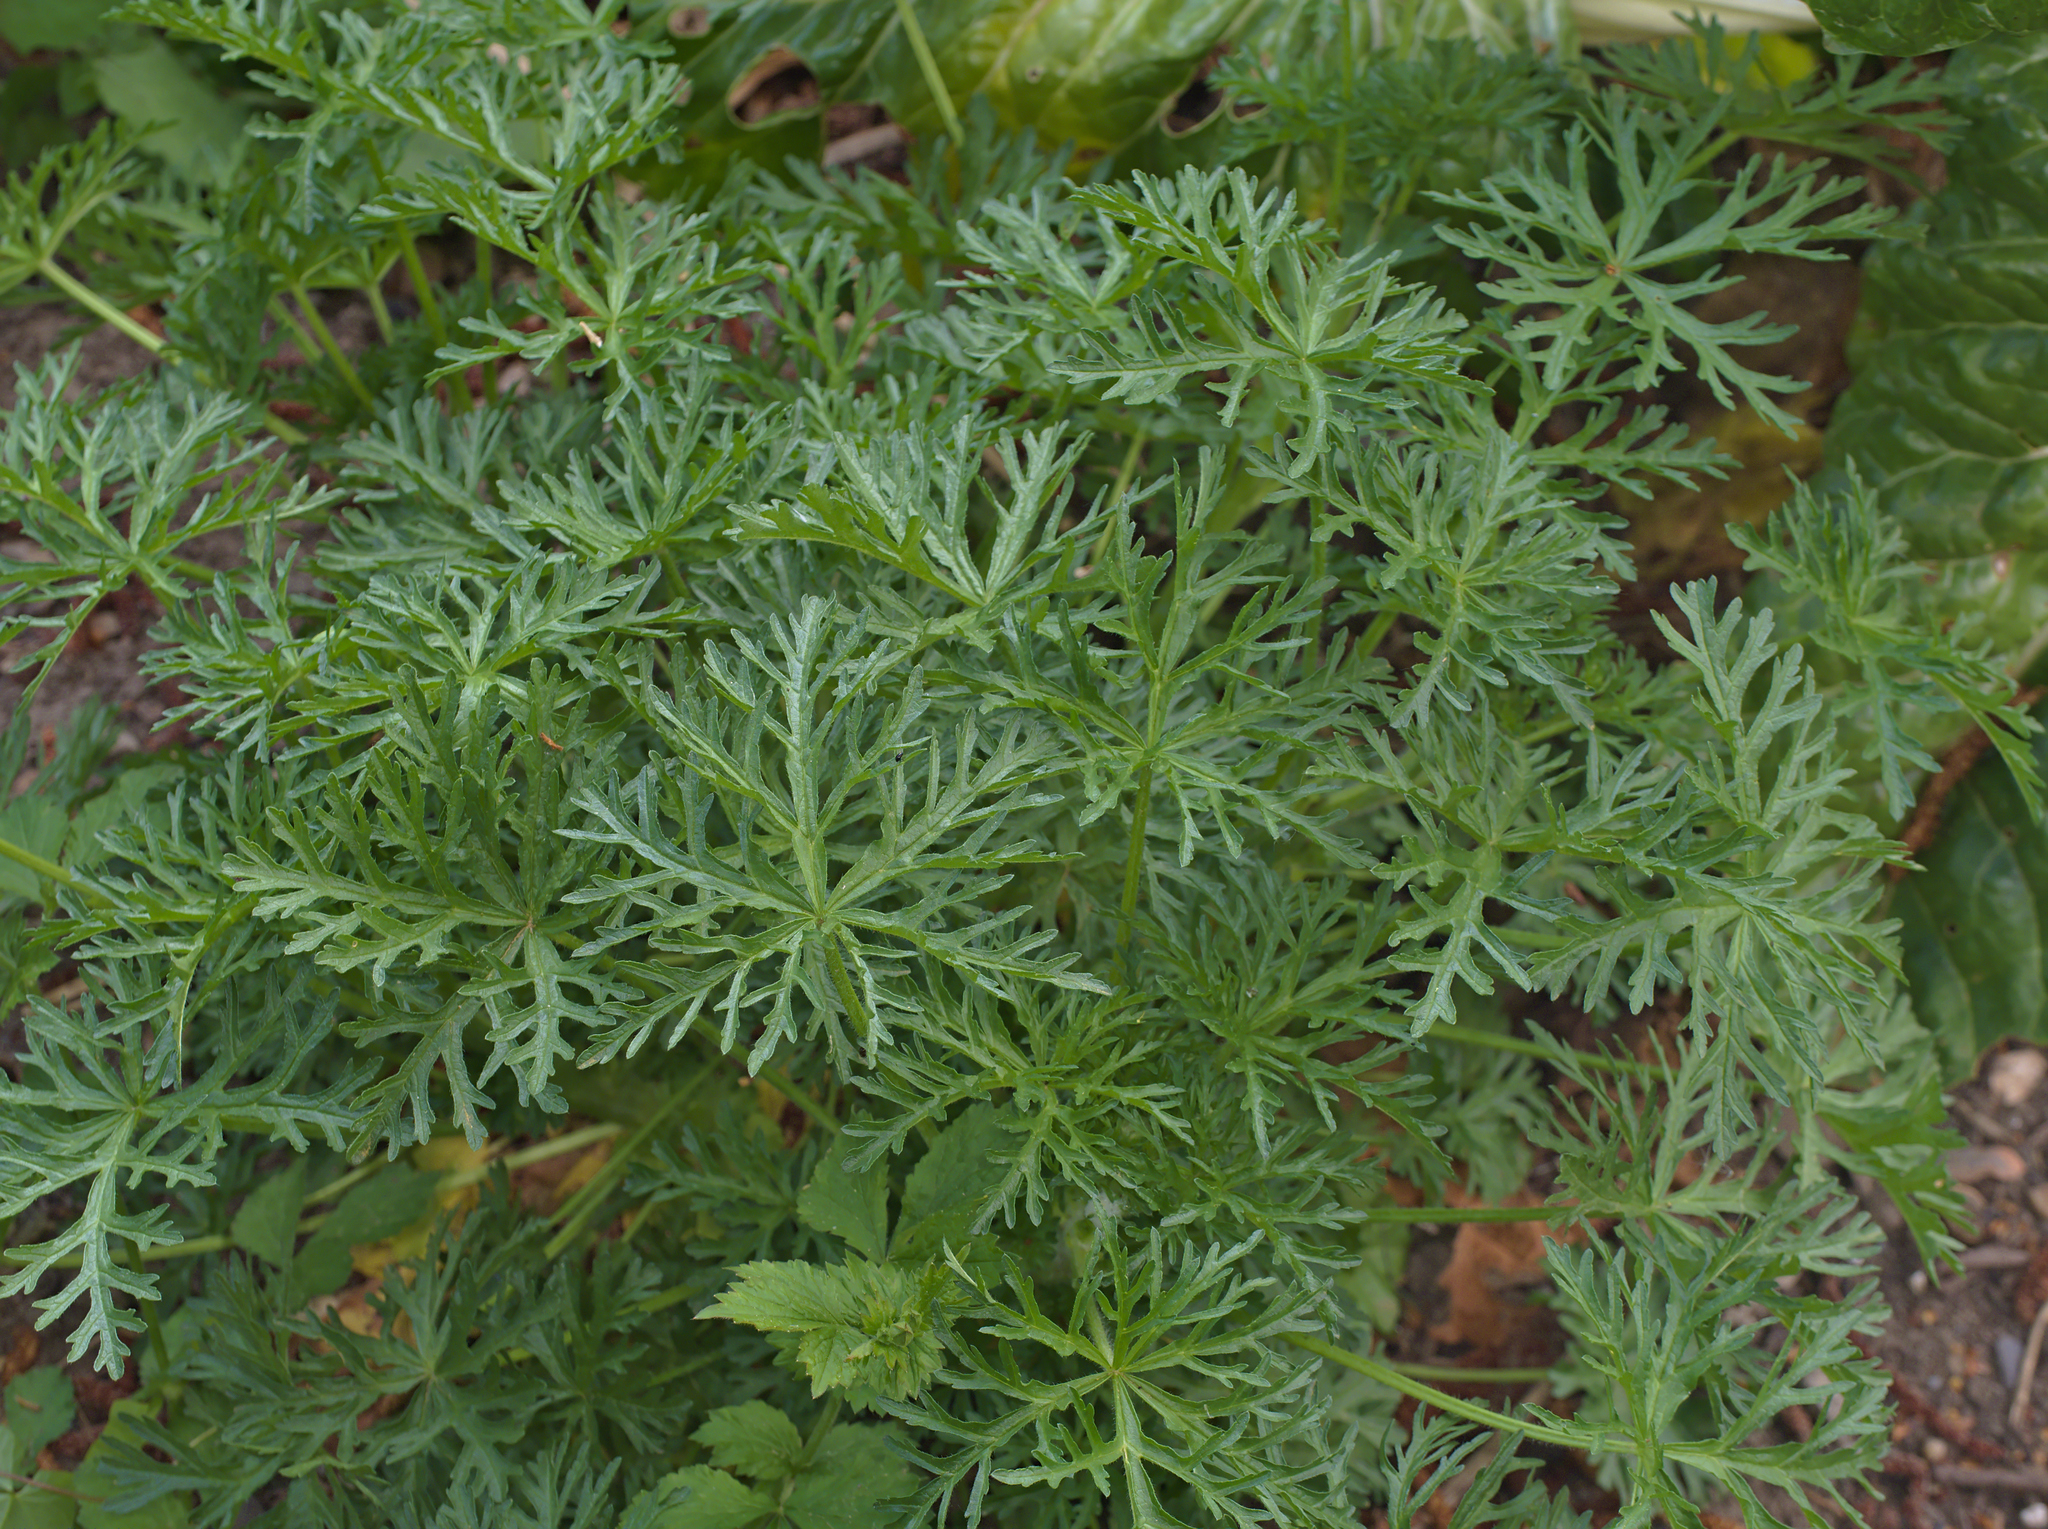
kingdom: Plantae
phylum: Tracheophyta
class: Magnoliopsida
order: Geraniales
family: Geraniaceae
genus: Geranium
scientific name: Geranium dissectum
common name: Cut-leaved crane's-bill
